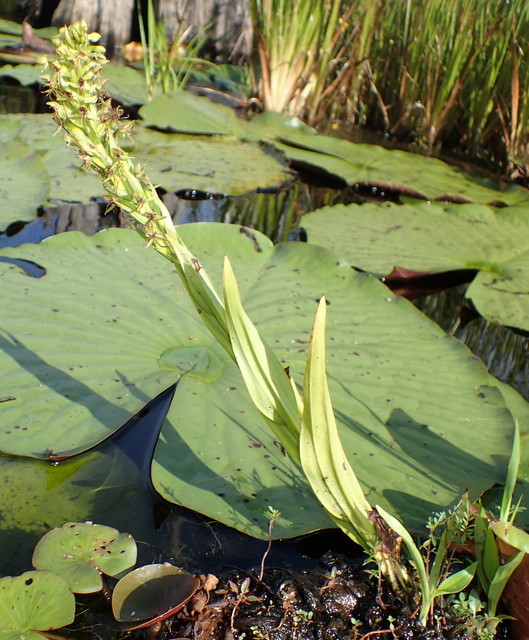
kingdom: Plantae
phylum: Tracheophyta
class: Liliopsida
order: Asparagales
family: Orchidaceae
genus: Habenaria
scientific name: Habenaria repens
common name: Water orchid
